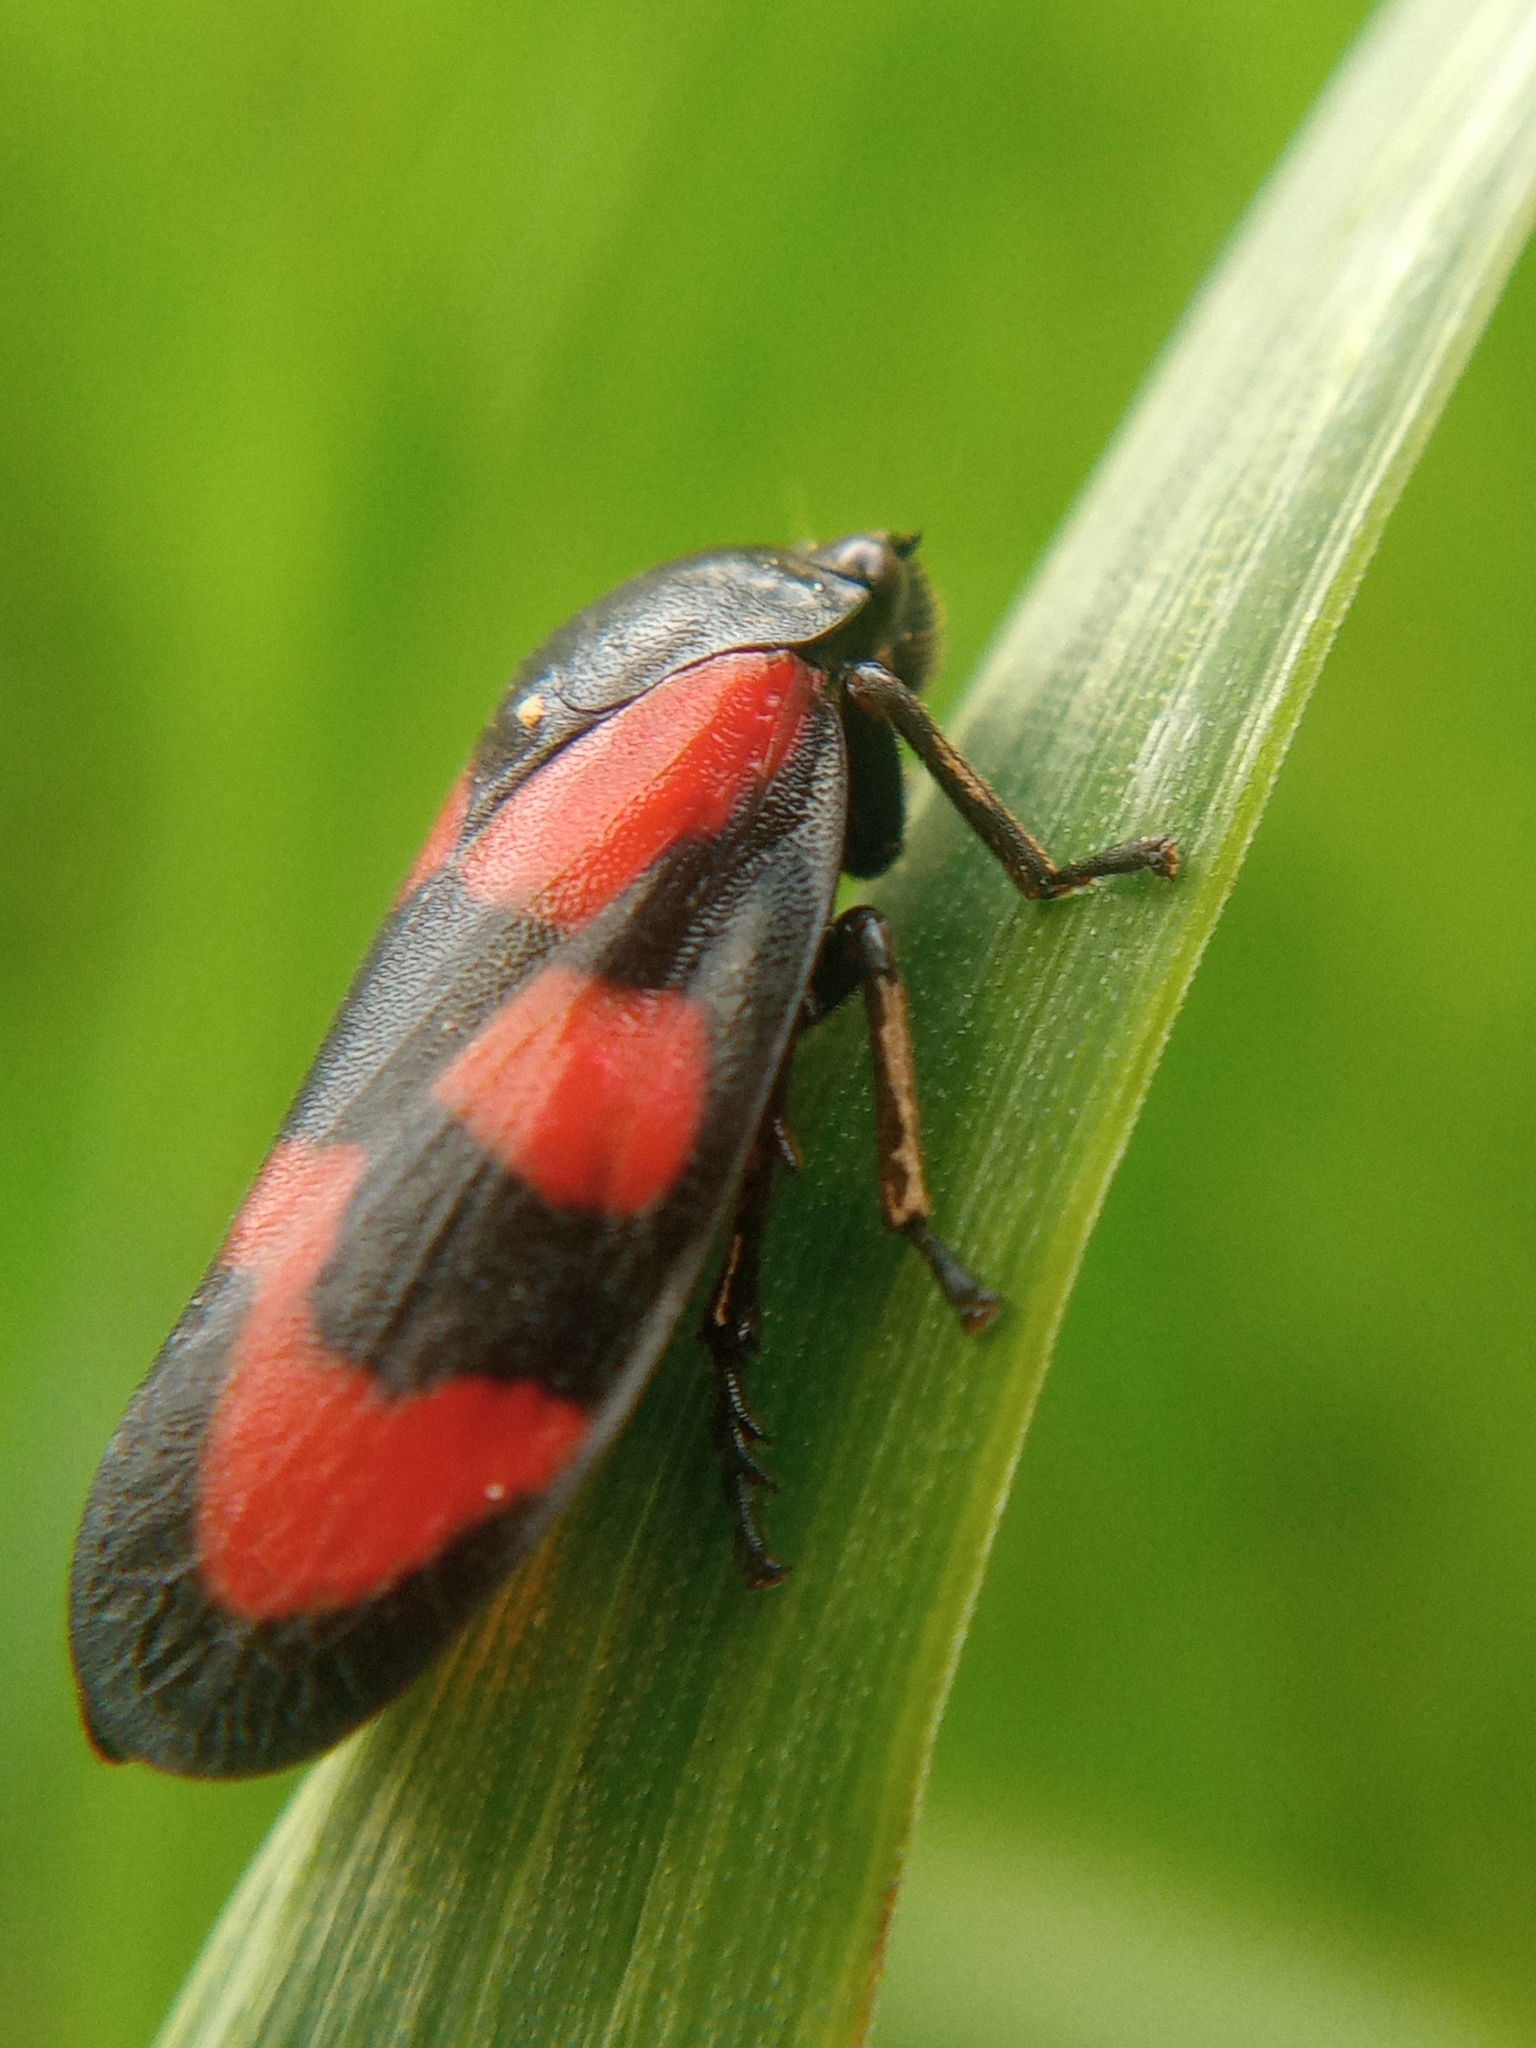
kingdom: Animalia
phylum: Arthropoda
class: Insecta
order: Hemiptera
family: Cercopidae
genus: Cercopis
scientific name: Cercopis vulnerata
